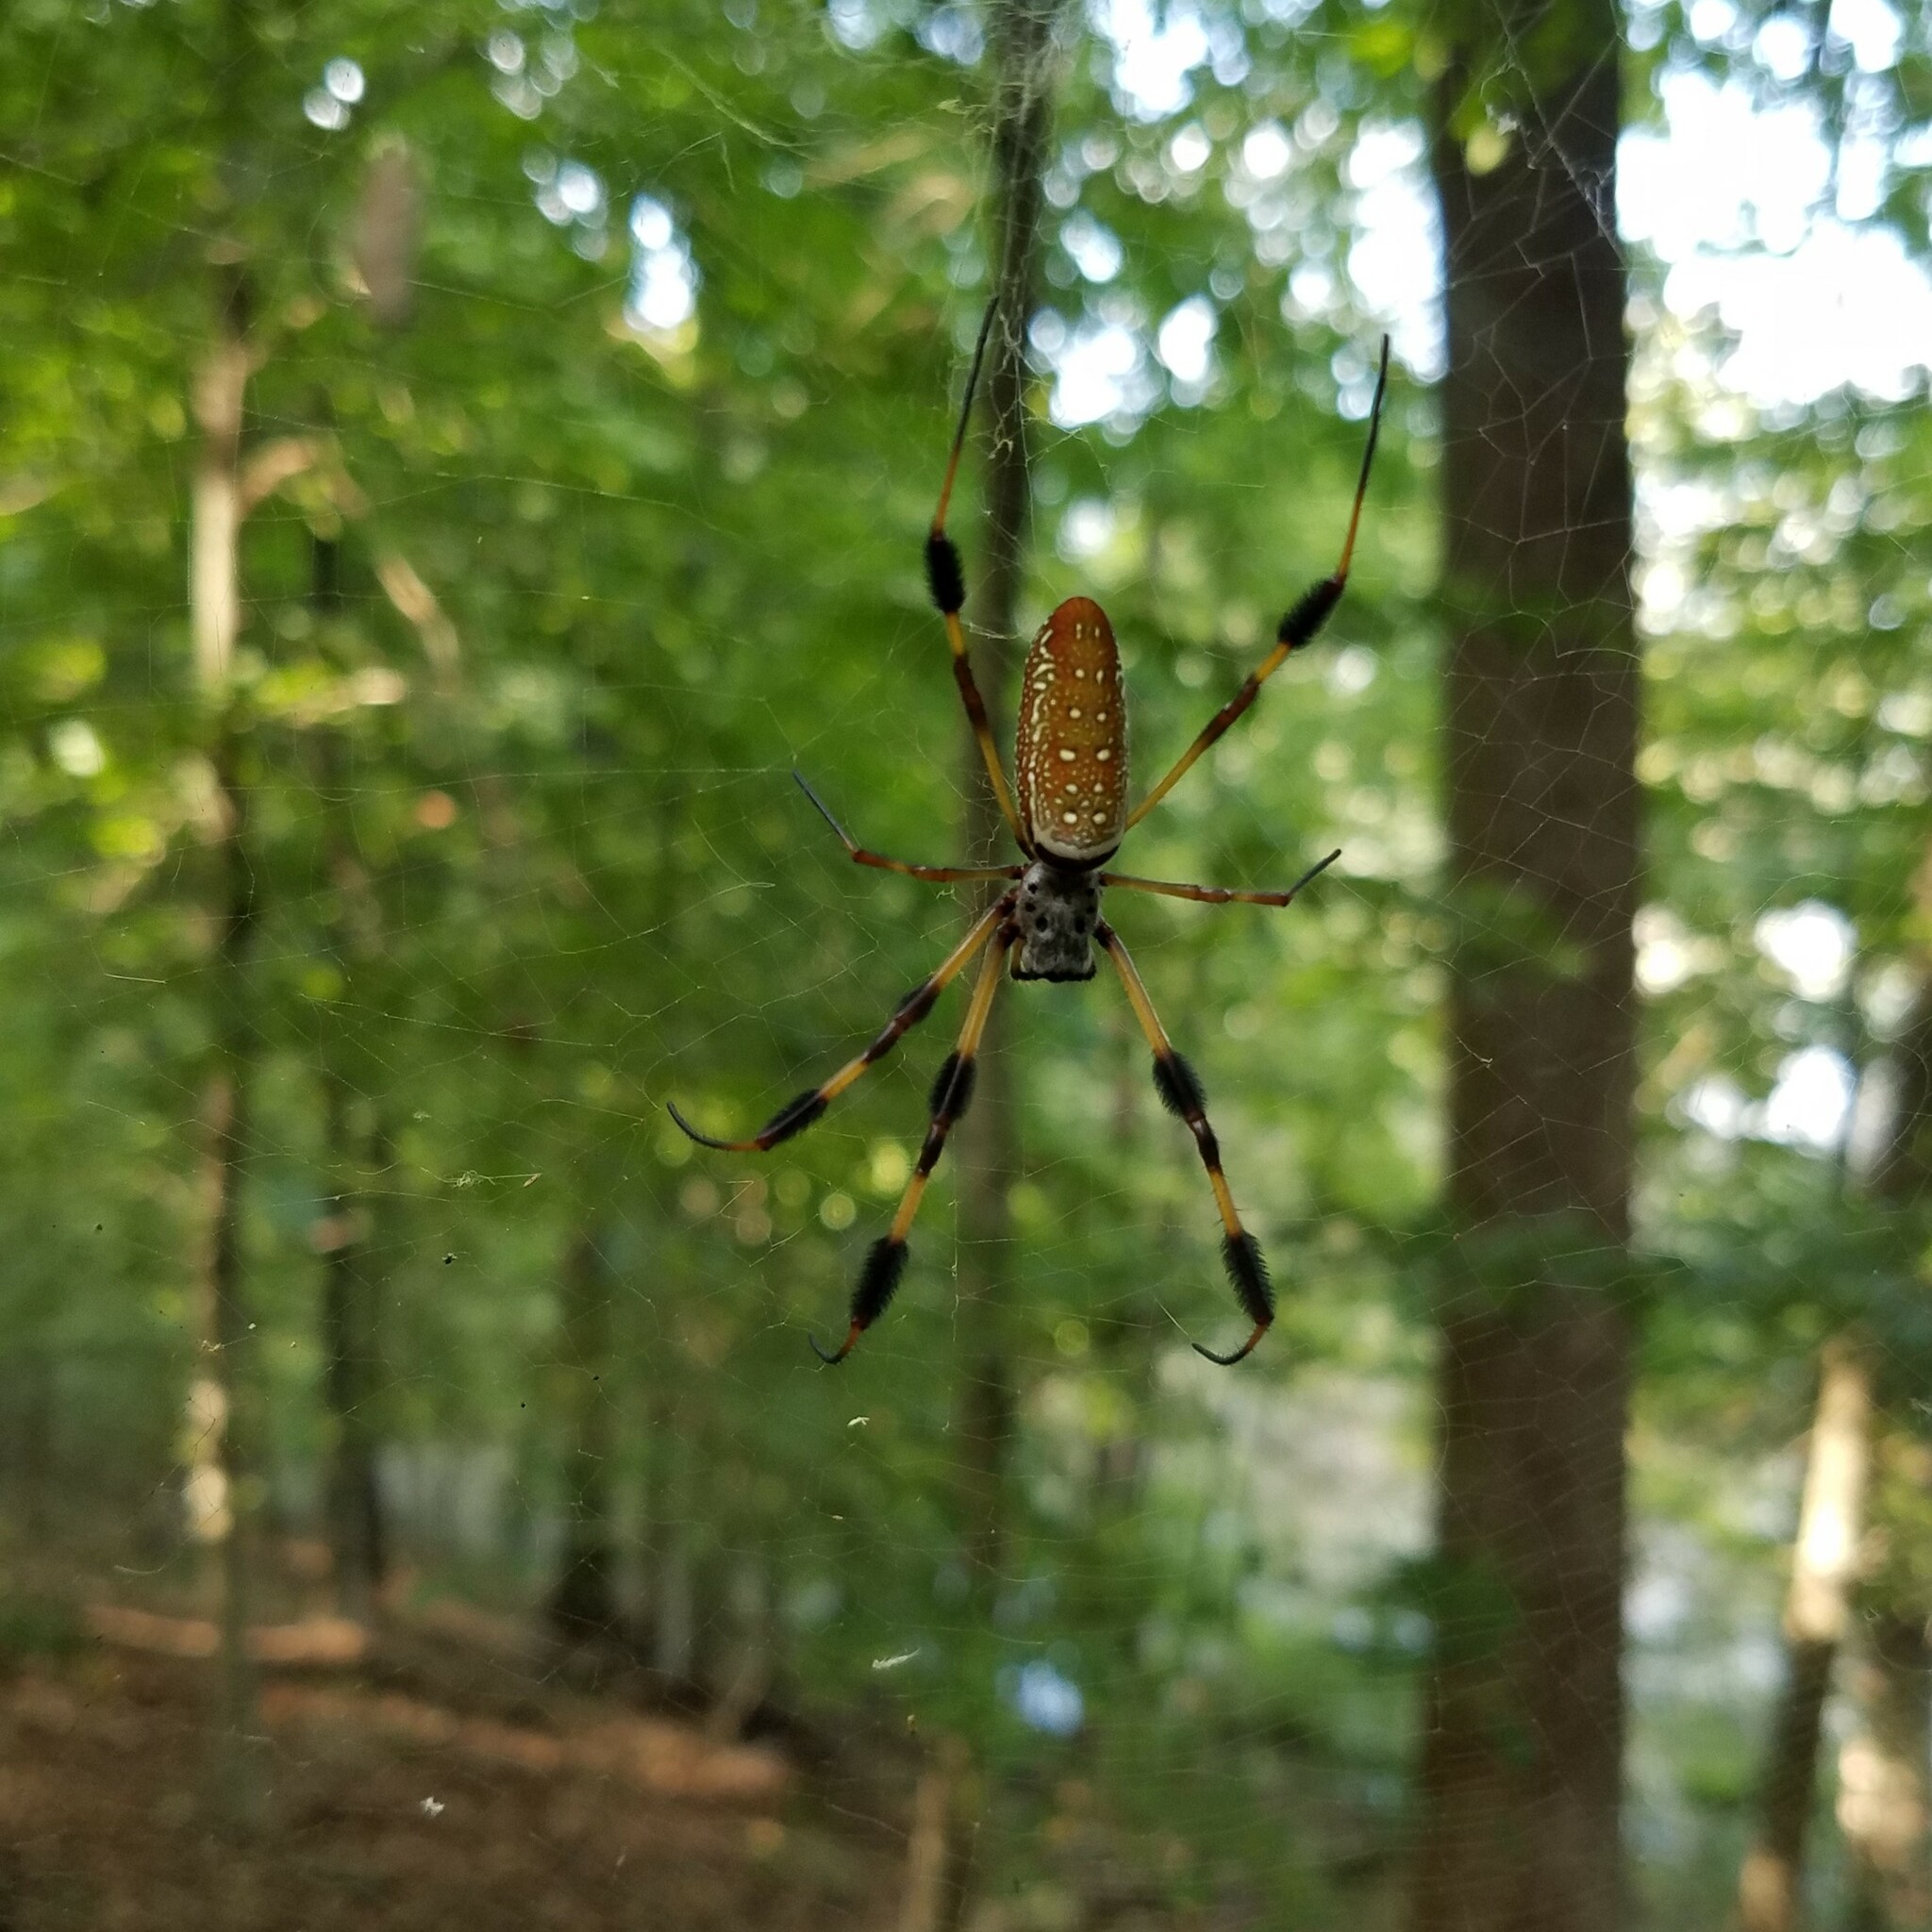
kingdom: Animalia
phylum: Arthropoda
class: Arachnida
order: Araneae
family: Araneidae
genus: Trichonephila
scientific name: Trichonephila clavipes
